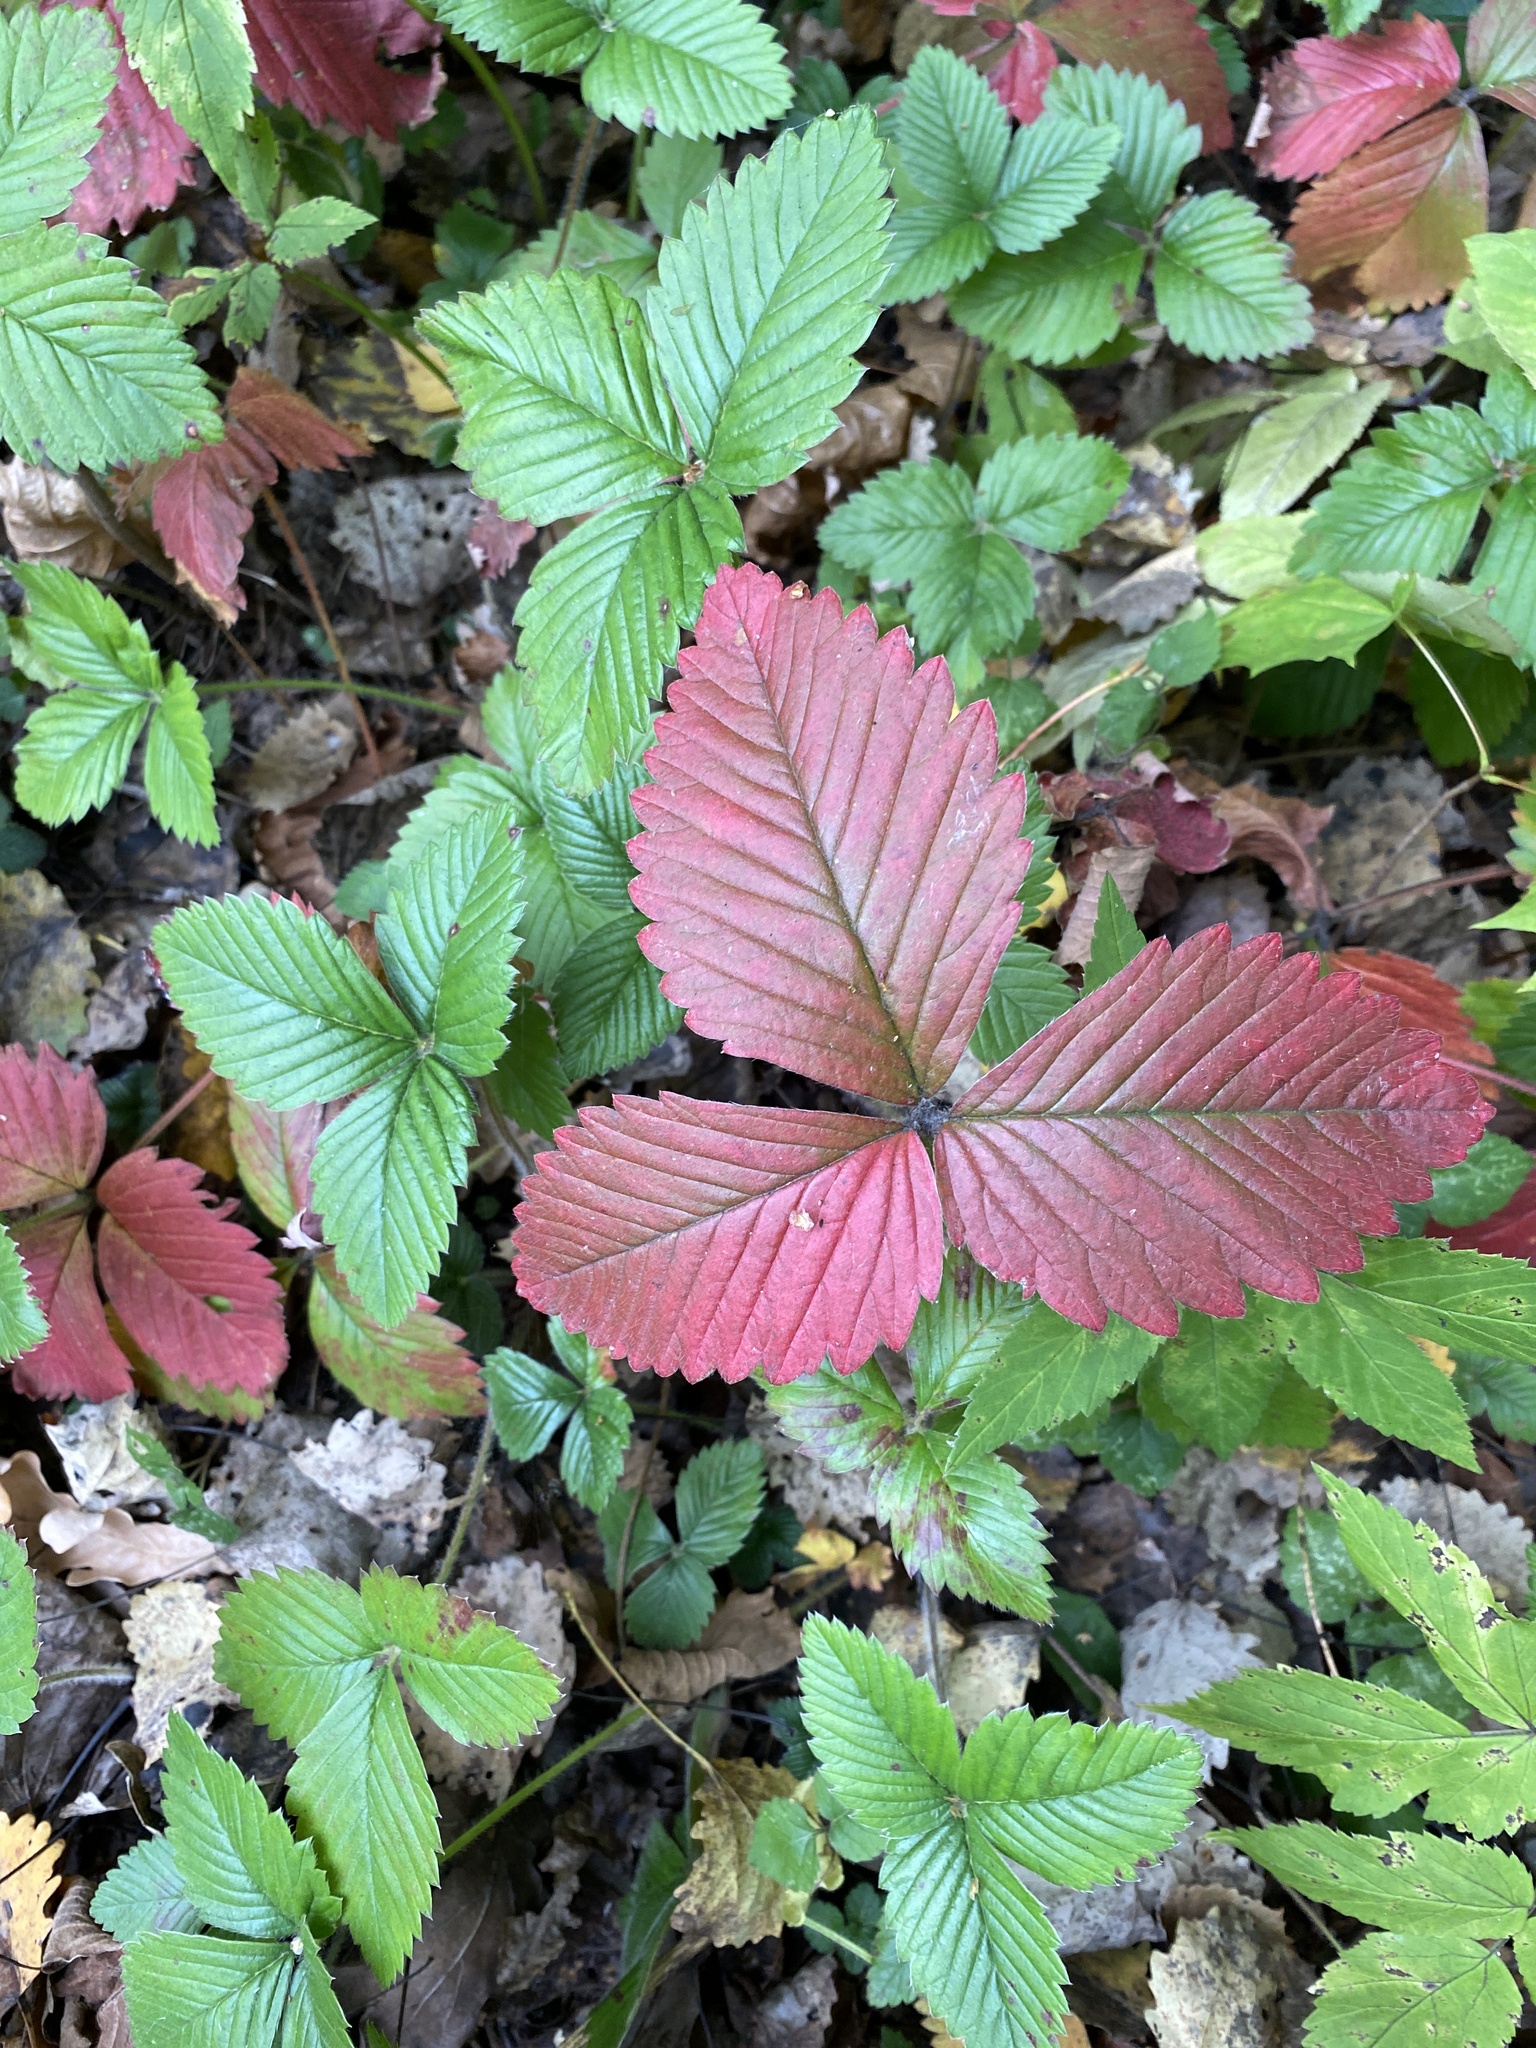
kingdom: Plantae
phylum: Tracheophyta
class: Magnoliopsida
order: Rosales
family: Rosaceae
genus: Fragaria
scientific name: Fragaria moschata
